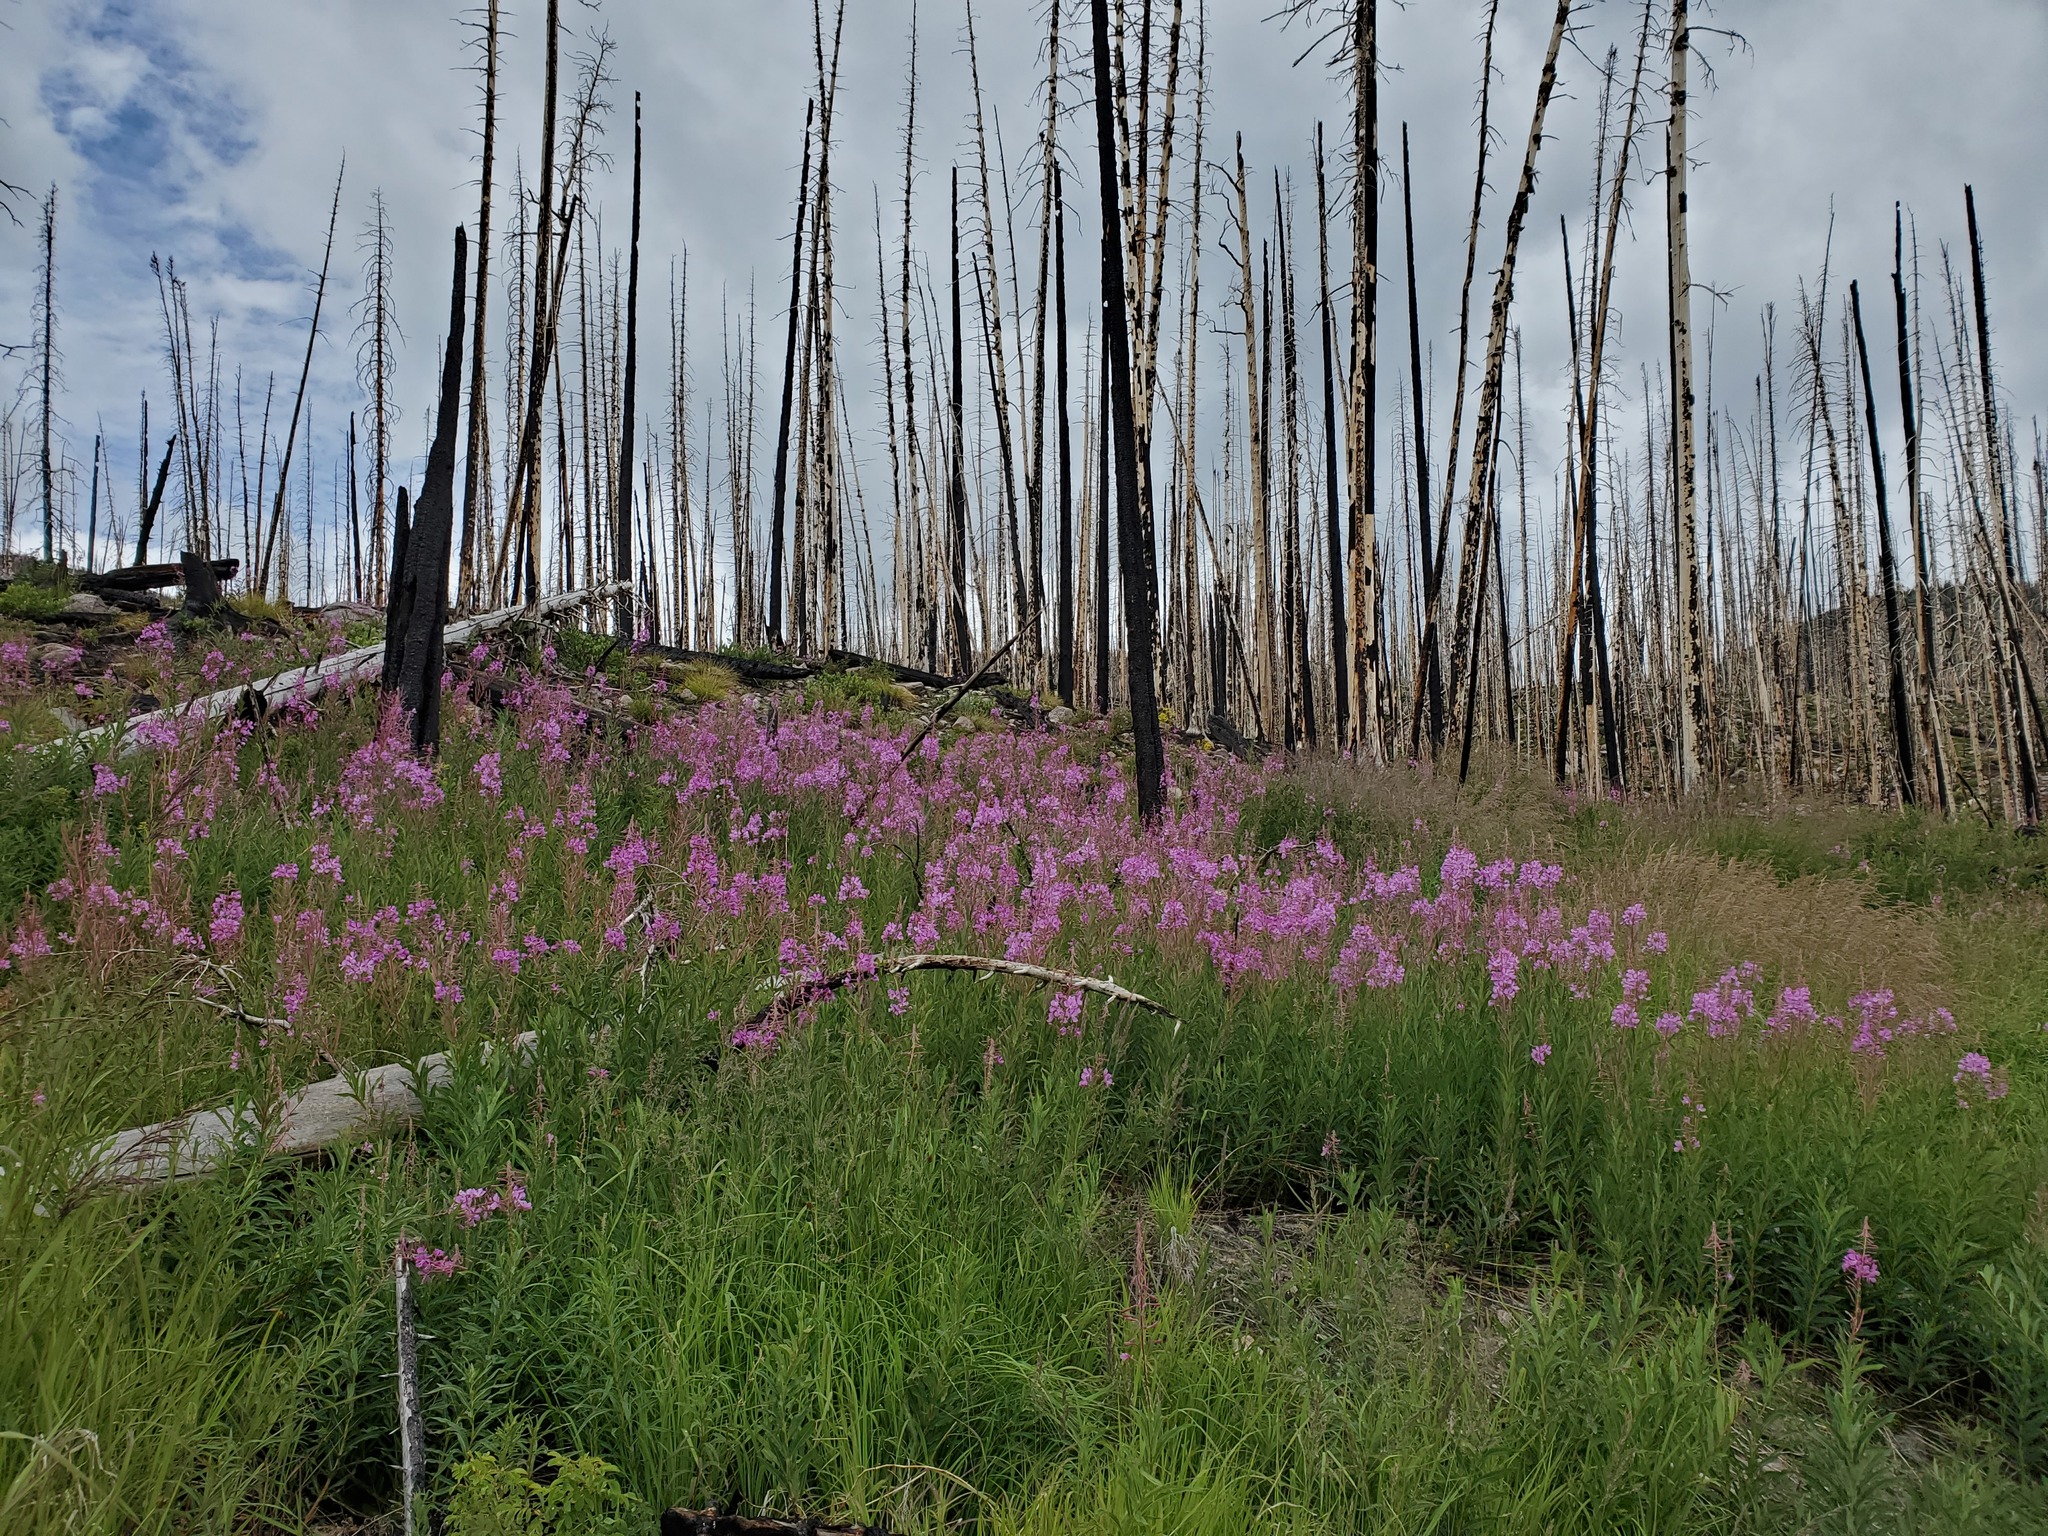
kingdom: Plantae
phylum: Tracheophyta
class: Magnoliopsida
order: Myrtales
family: Onagraceae
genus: Chamaenerion
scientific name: Chamaenerion angustifolium
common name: Fireweed
